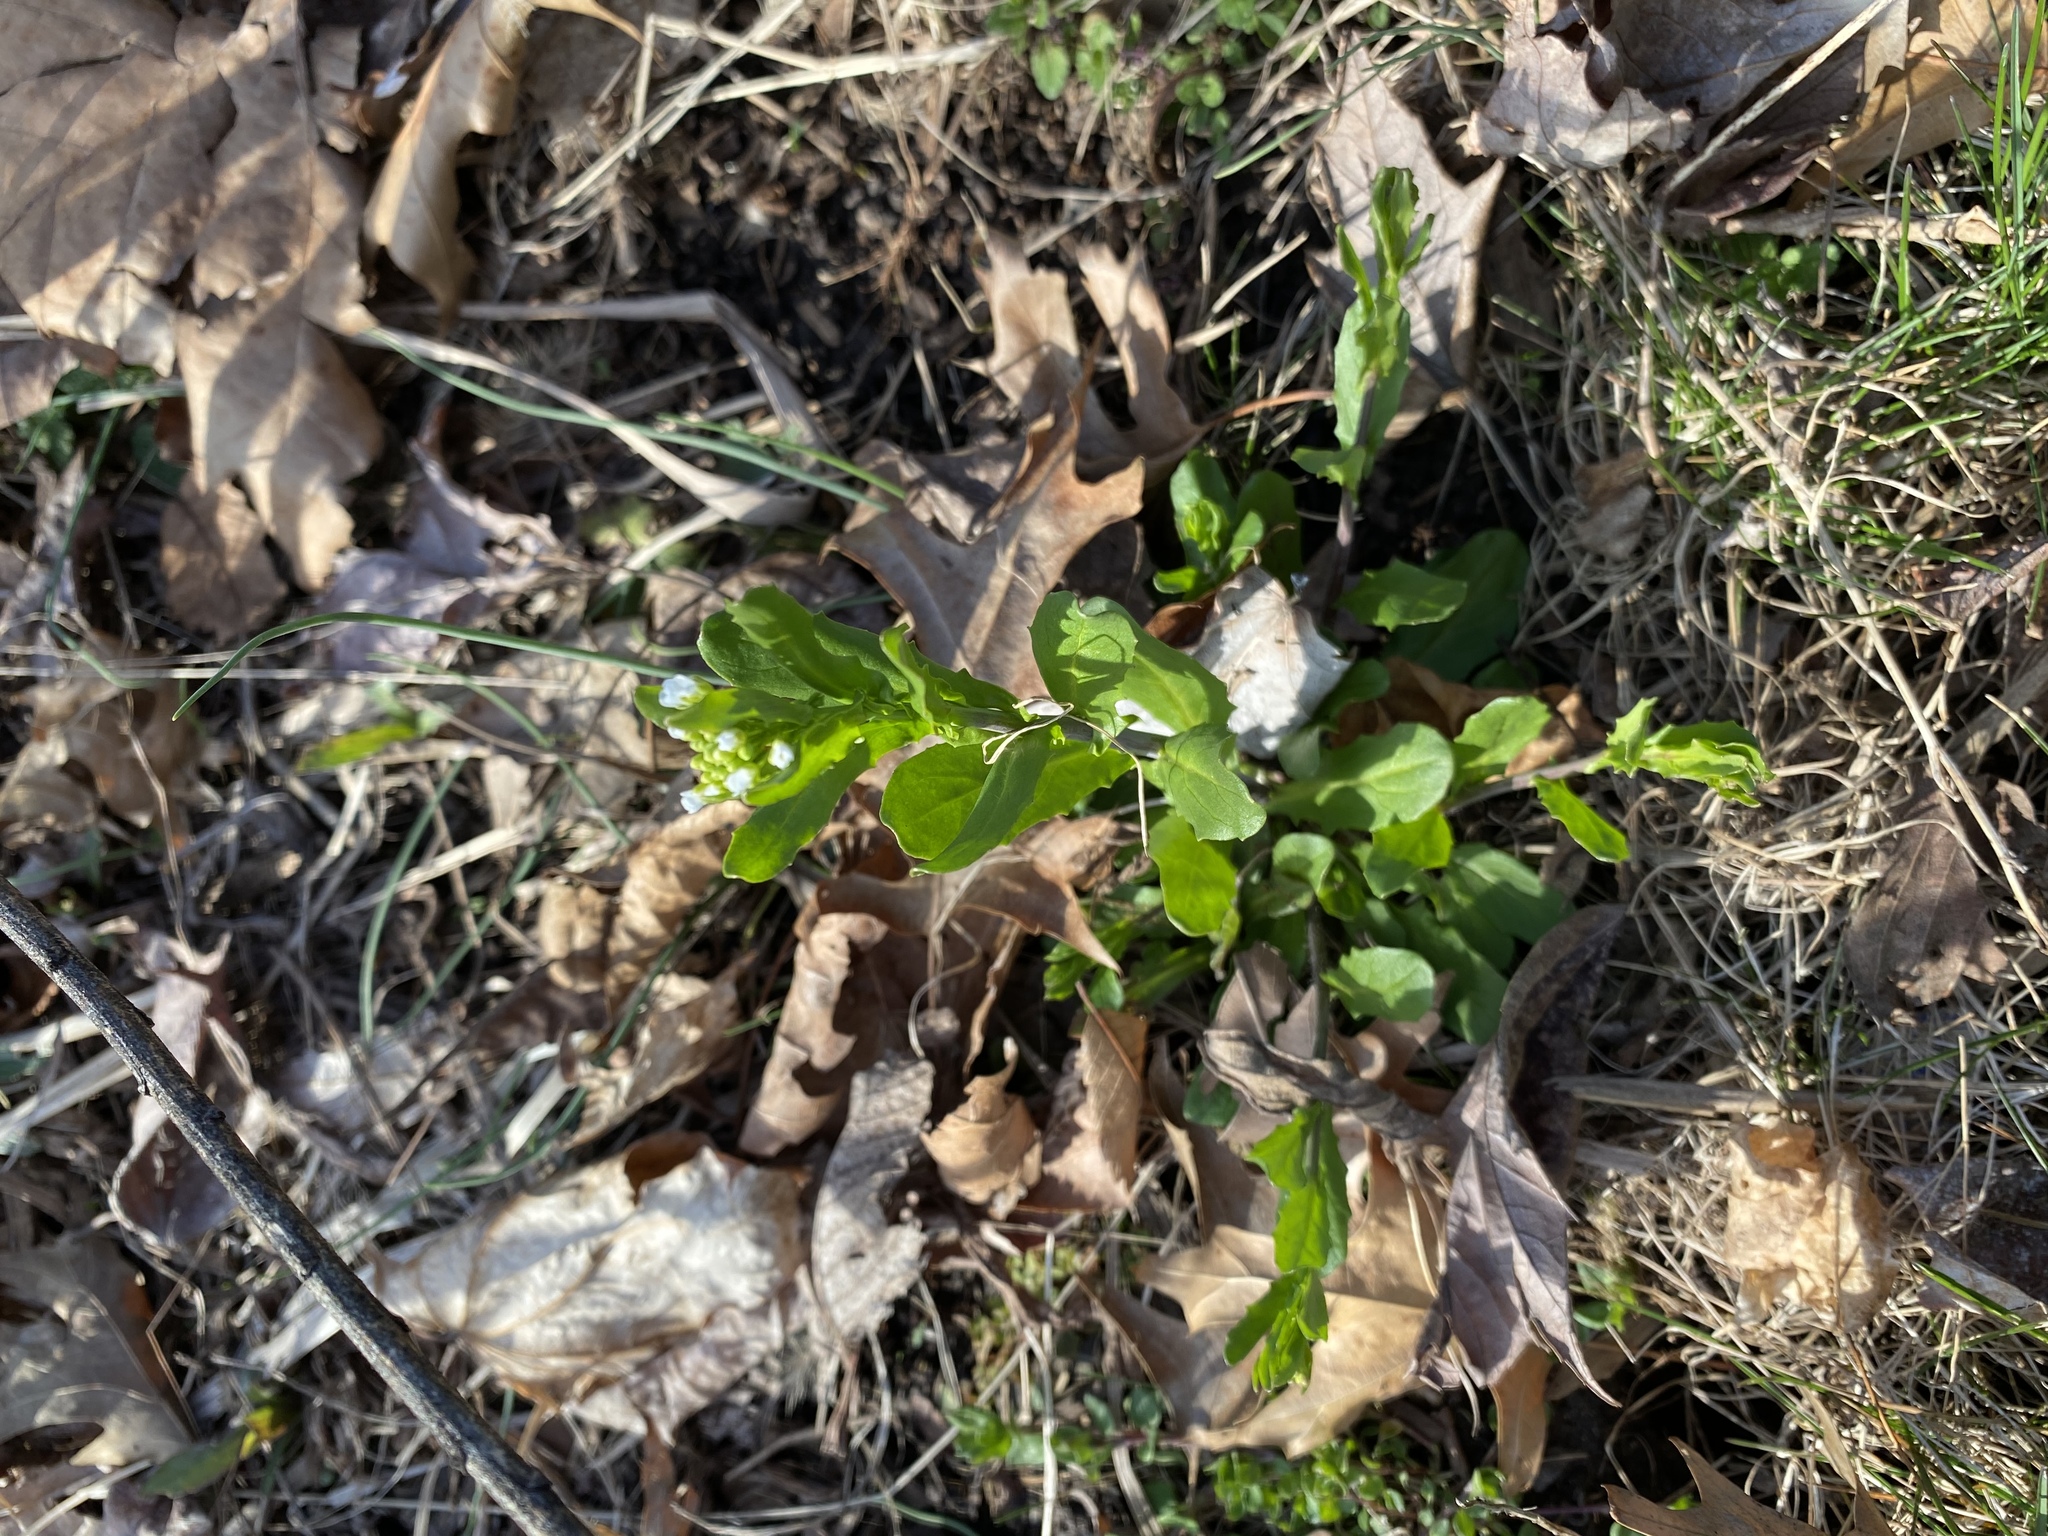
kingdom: Plantae
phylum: Tracheophyta
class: Magnoliopsida
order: Brassicales
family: Brassicaceae
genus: Mummenhoffia
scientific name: Mummenhoffia alliacea
